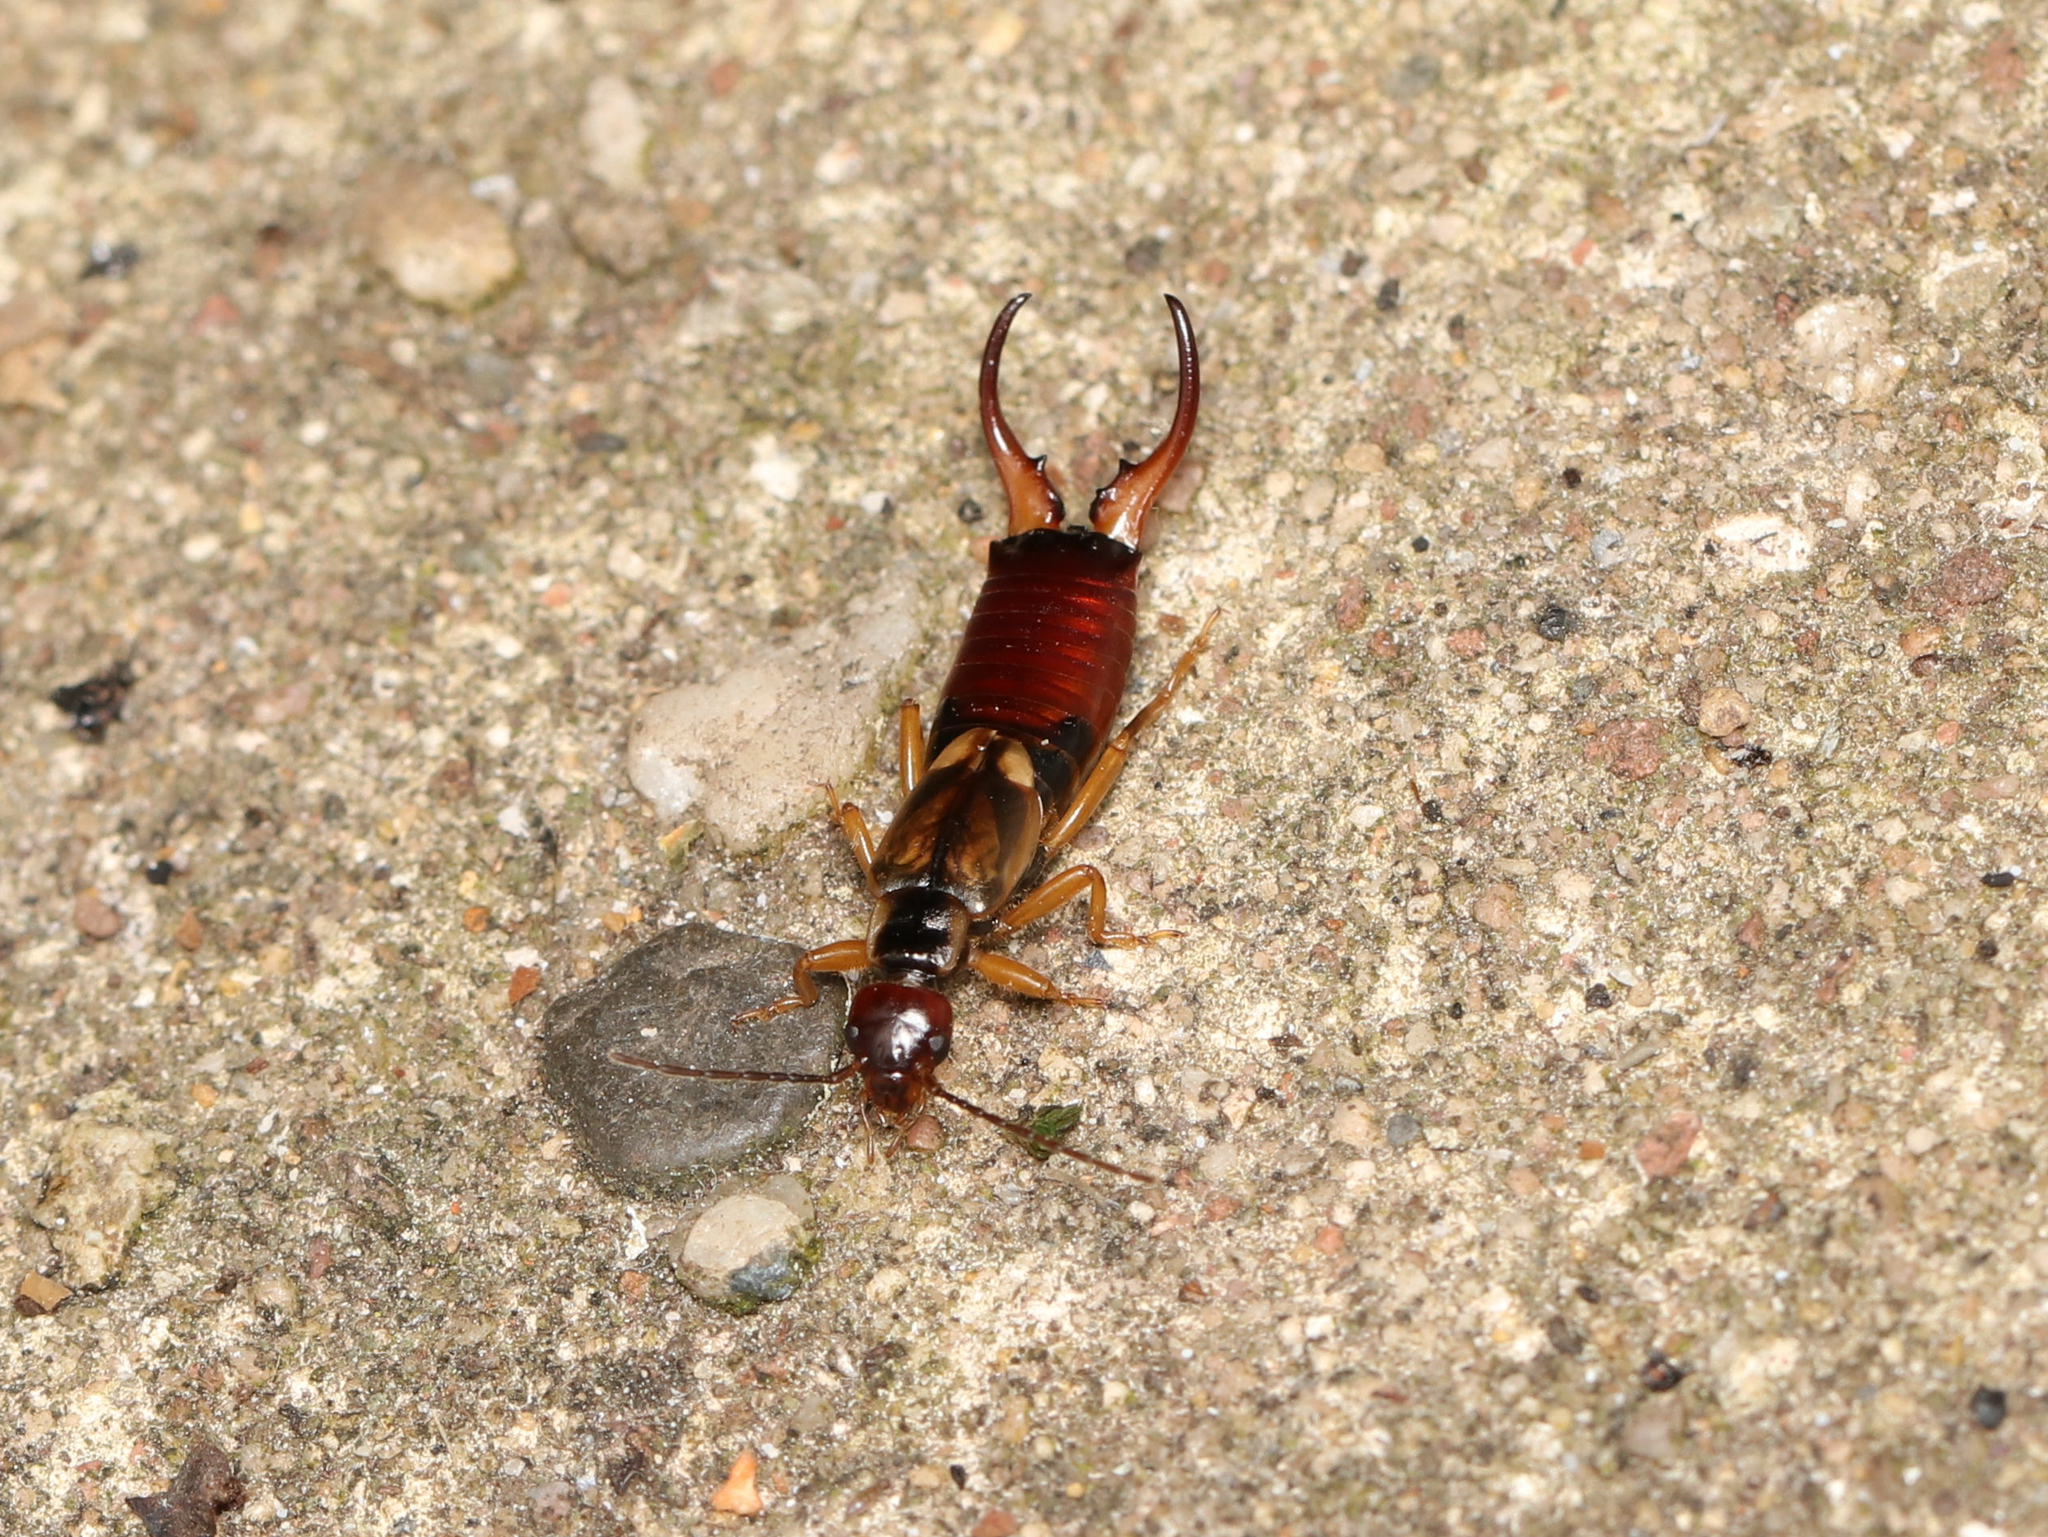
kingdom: Animalia
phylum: Arthropoda
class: Insecta
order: Dermaptera
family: Forficulidae
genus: Forficula
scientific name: Forficula
